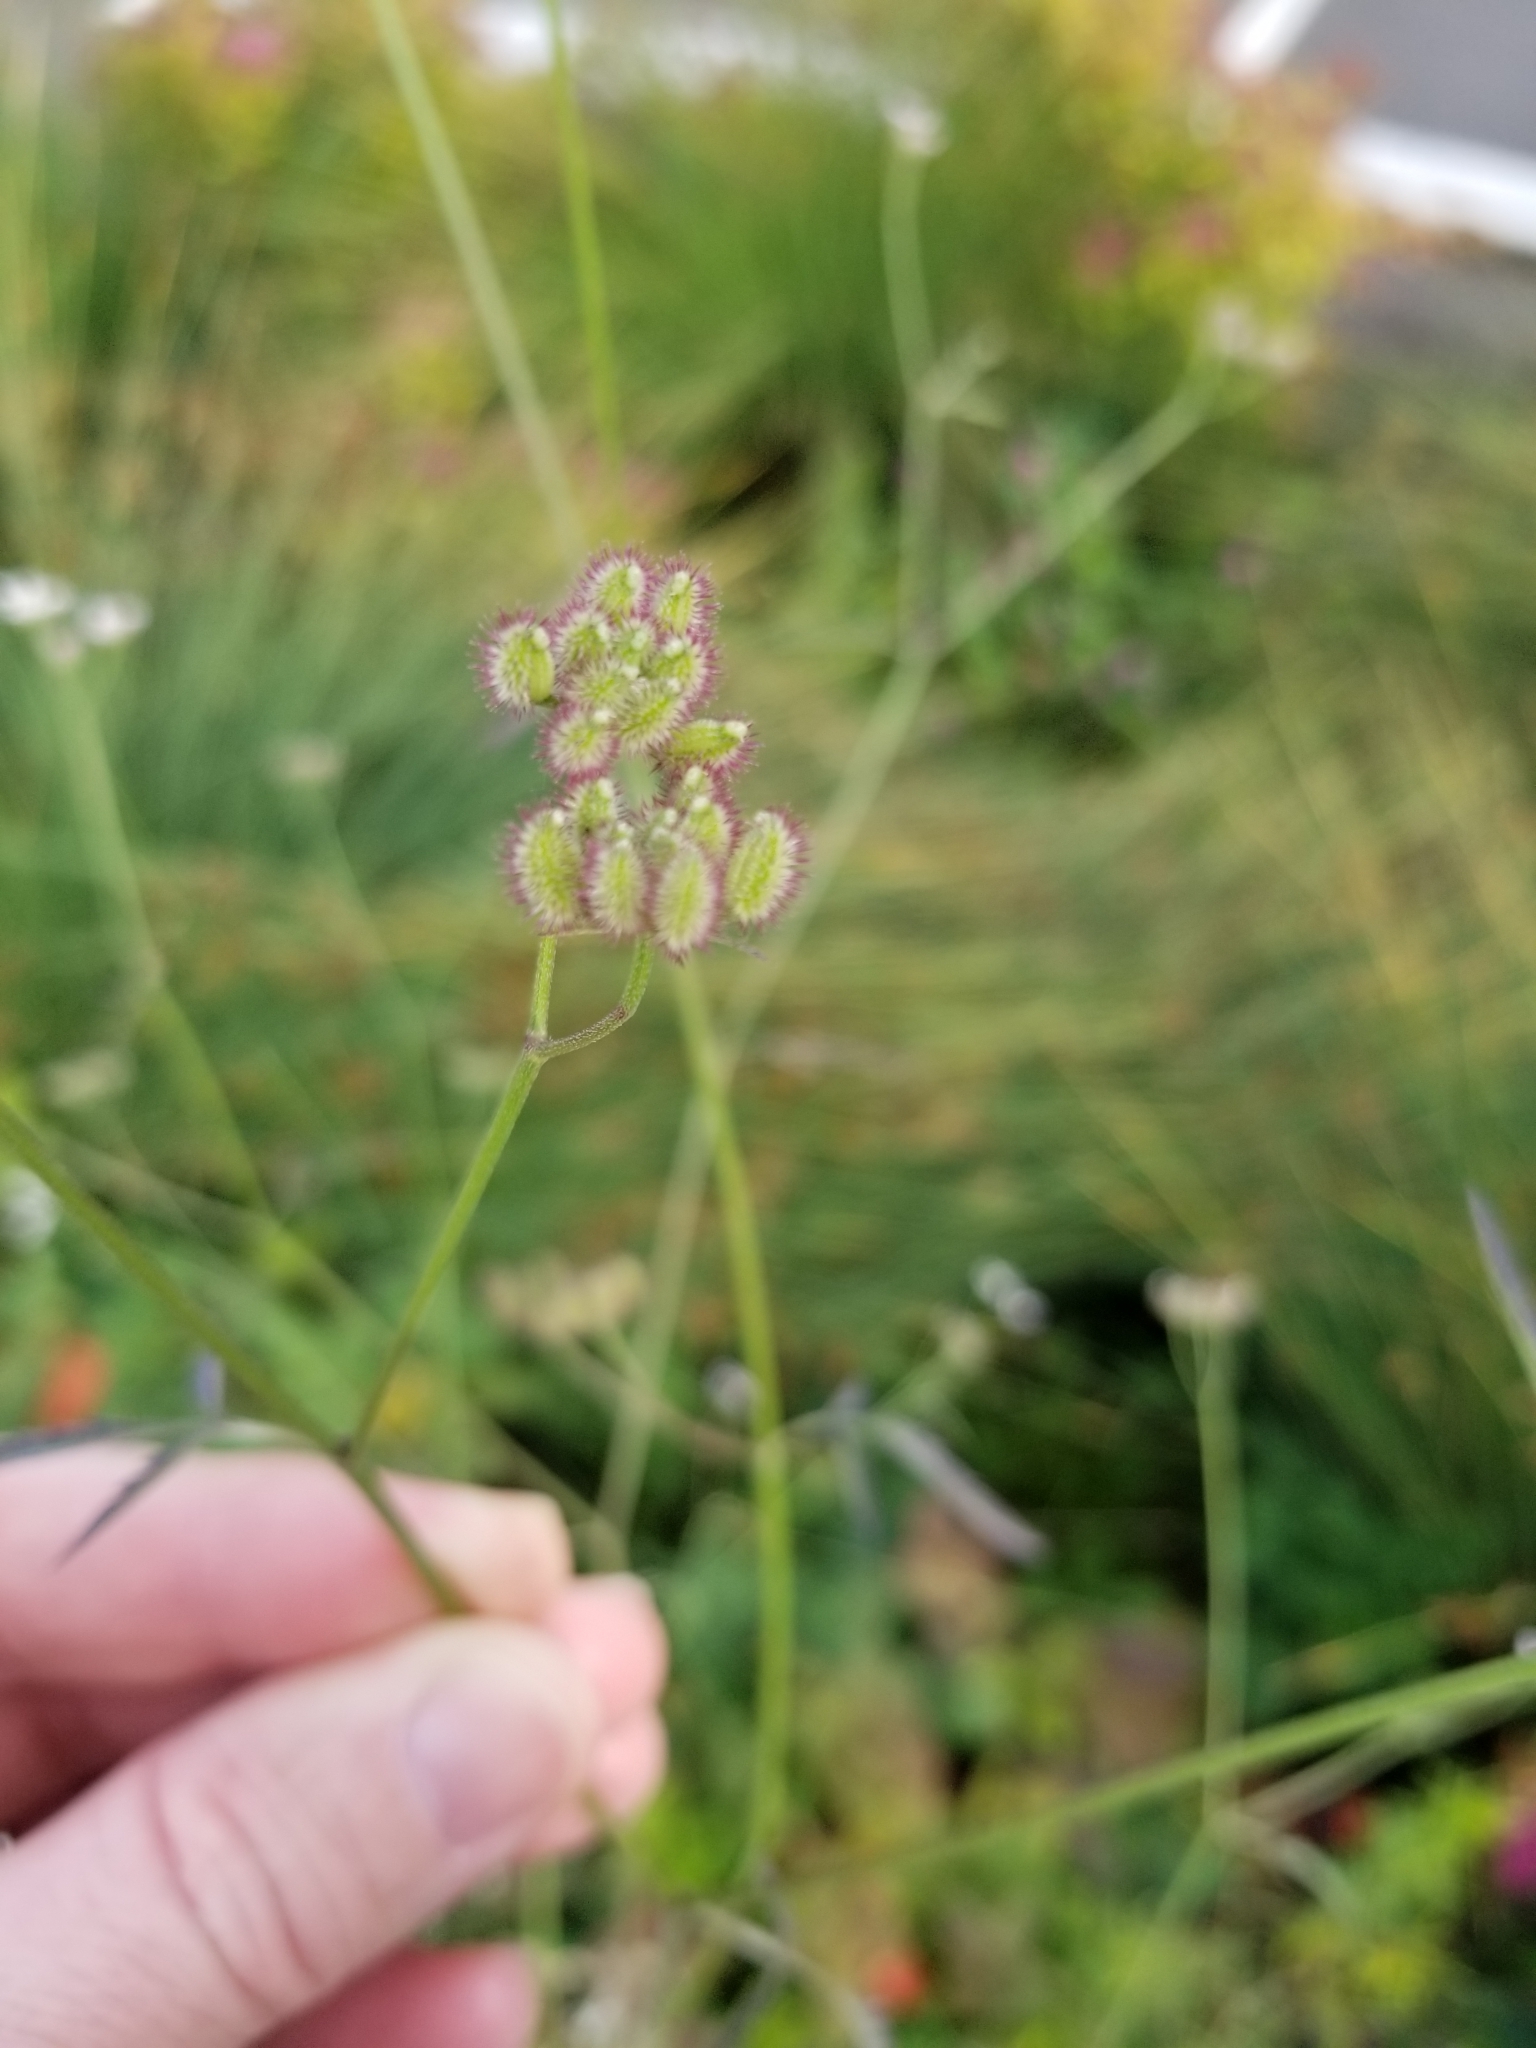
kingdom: Plantae
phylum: Tracheophyta
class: Magnoliopsida
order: Apiales
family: Apiaceae
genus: Torilis
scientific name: Torilis arvensis
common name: Spreading hedge-parsley
